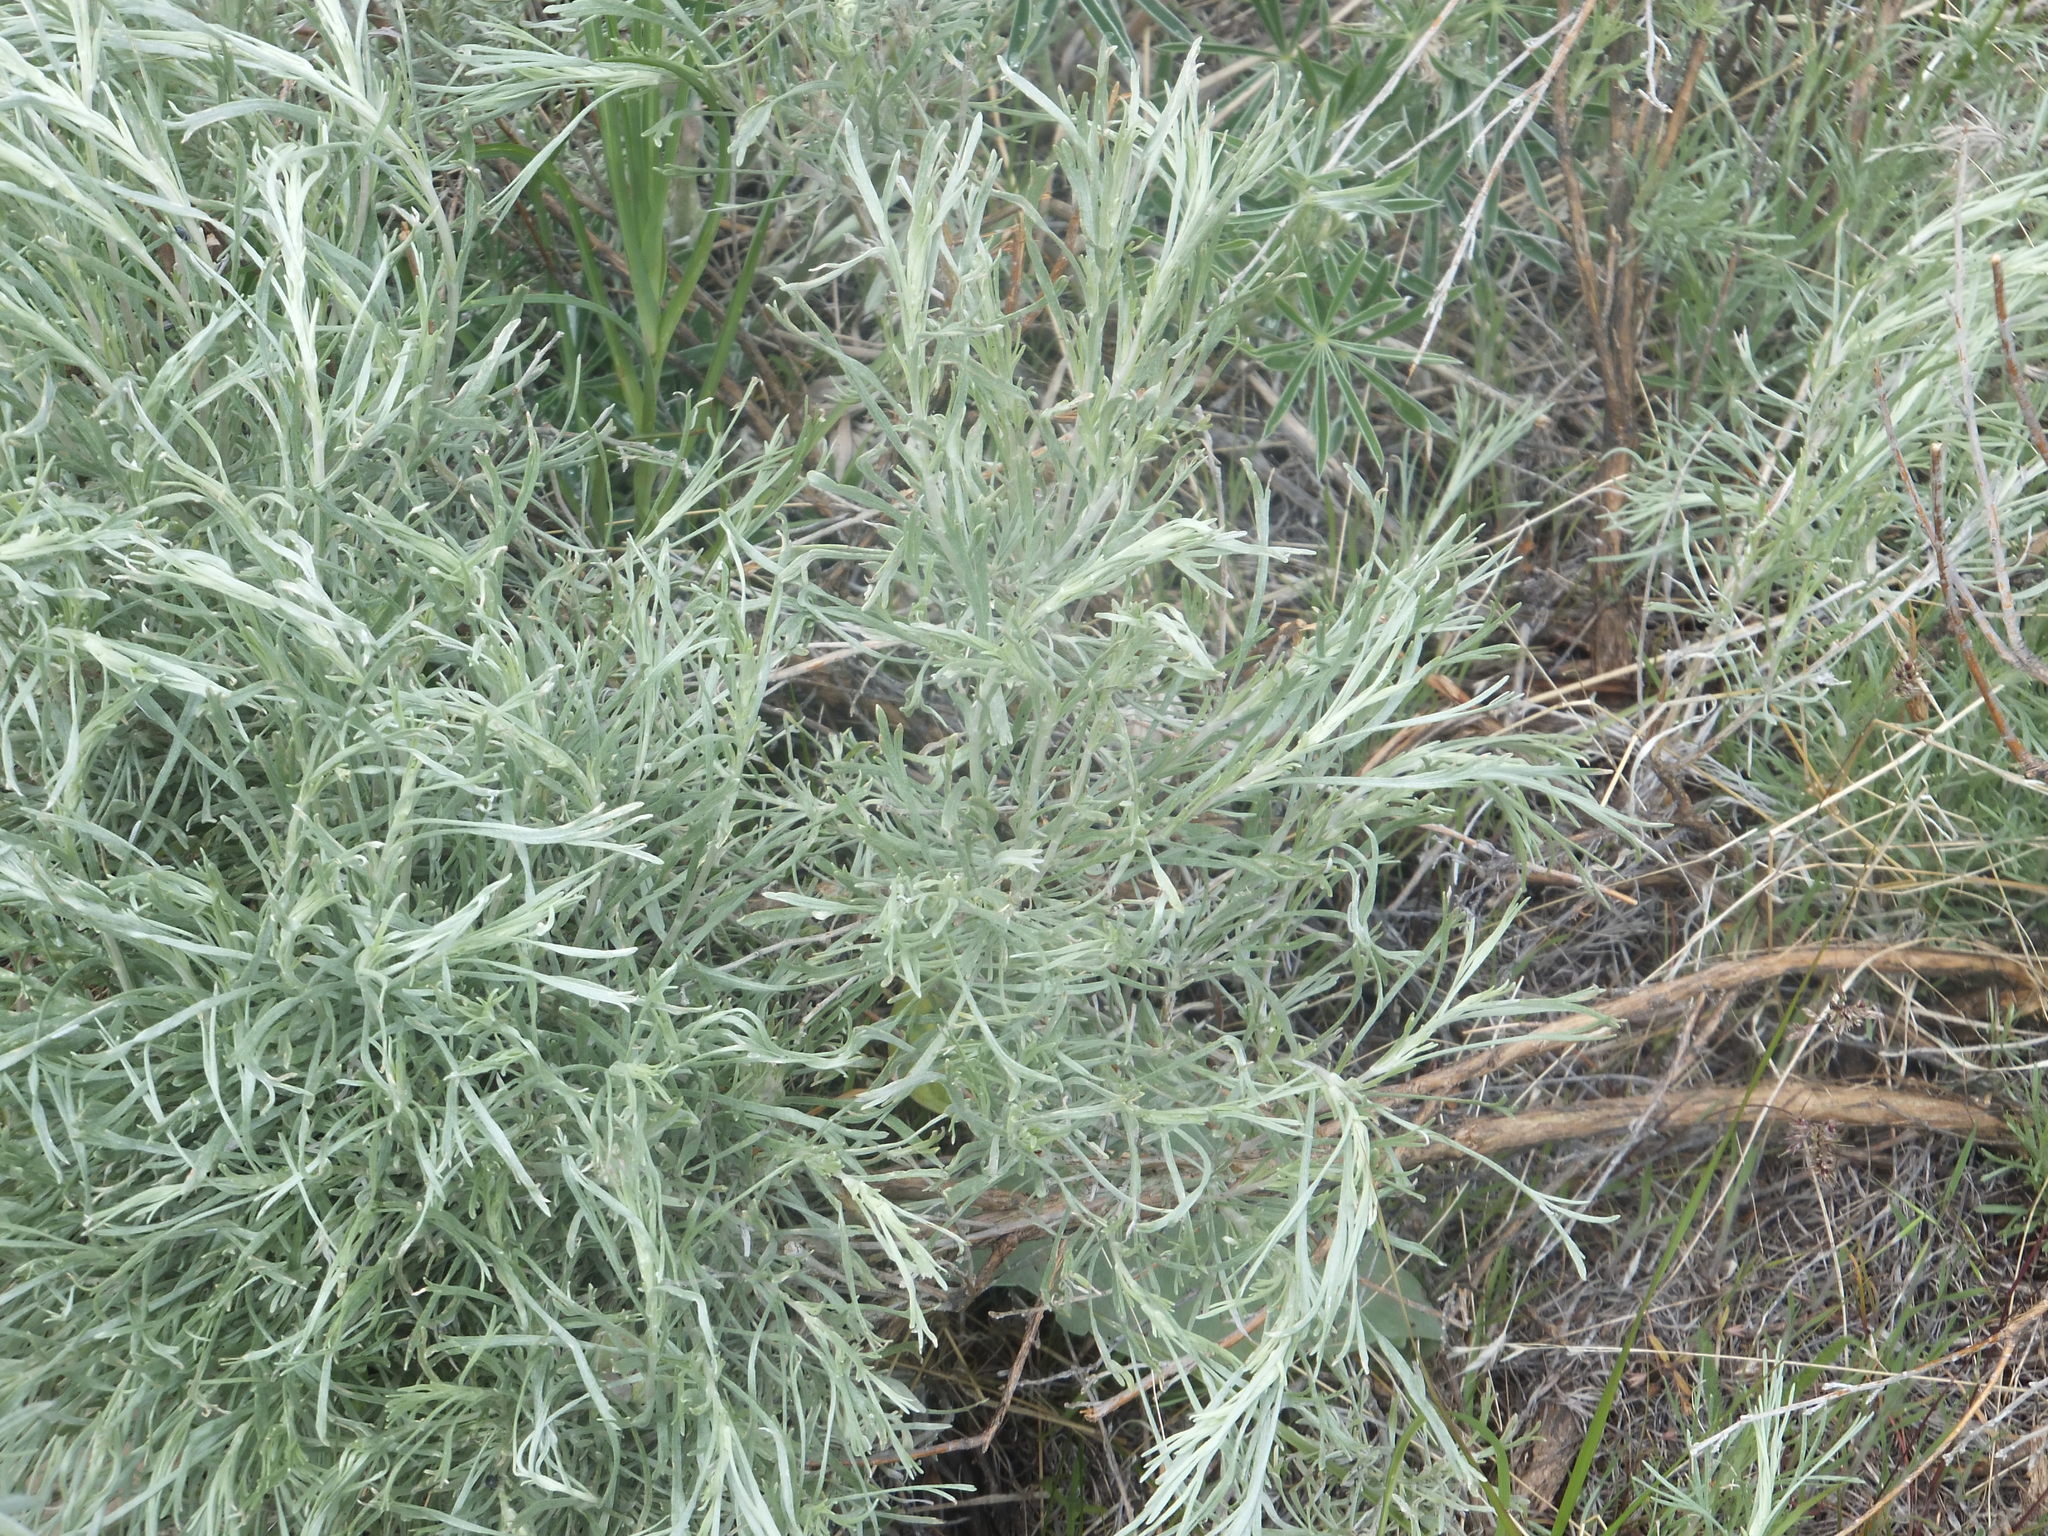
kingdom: Plantae
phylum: Tracheophyta
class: Magnoliopsida
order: Asterales
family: Asteraceae
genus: Artemisia
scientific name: Artemisia tripartita
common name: Three-tip sagebrush
